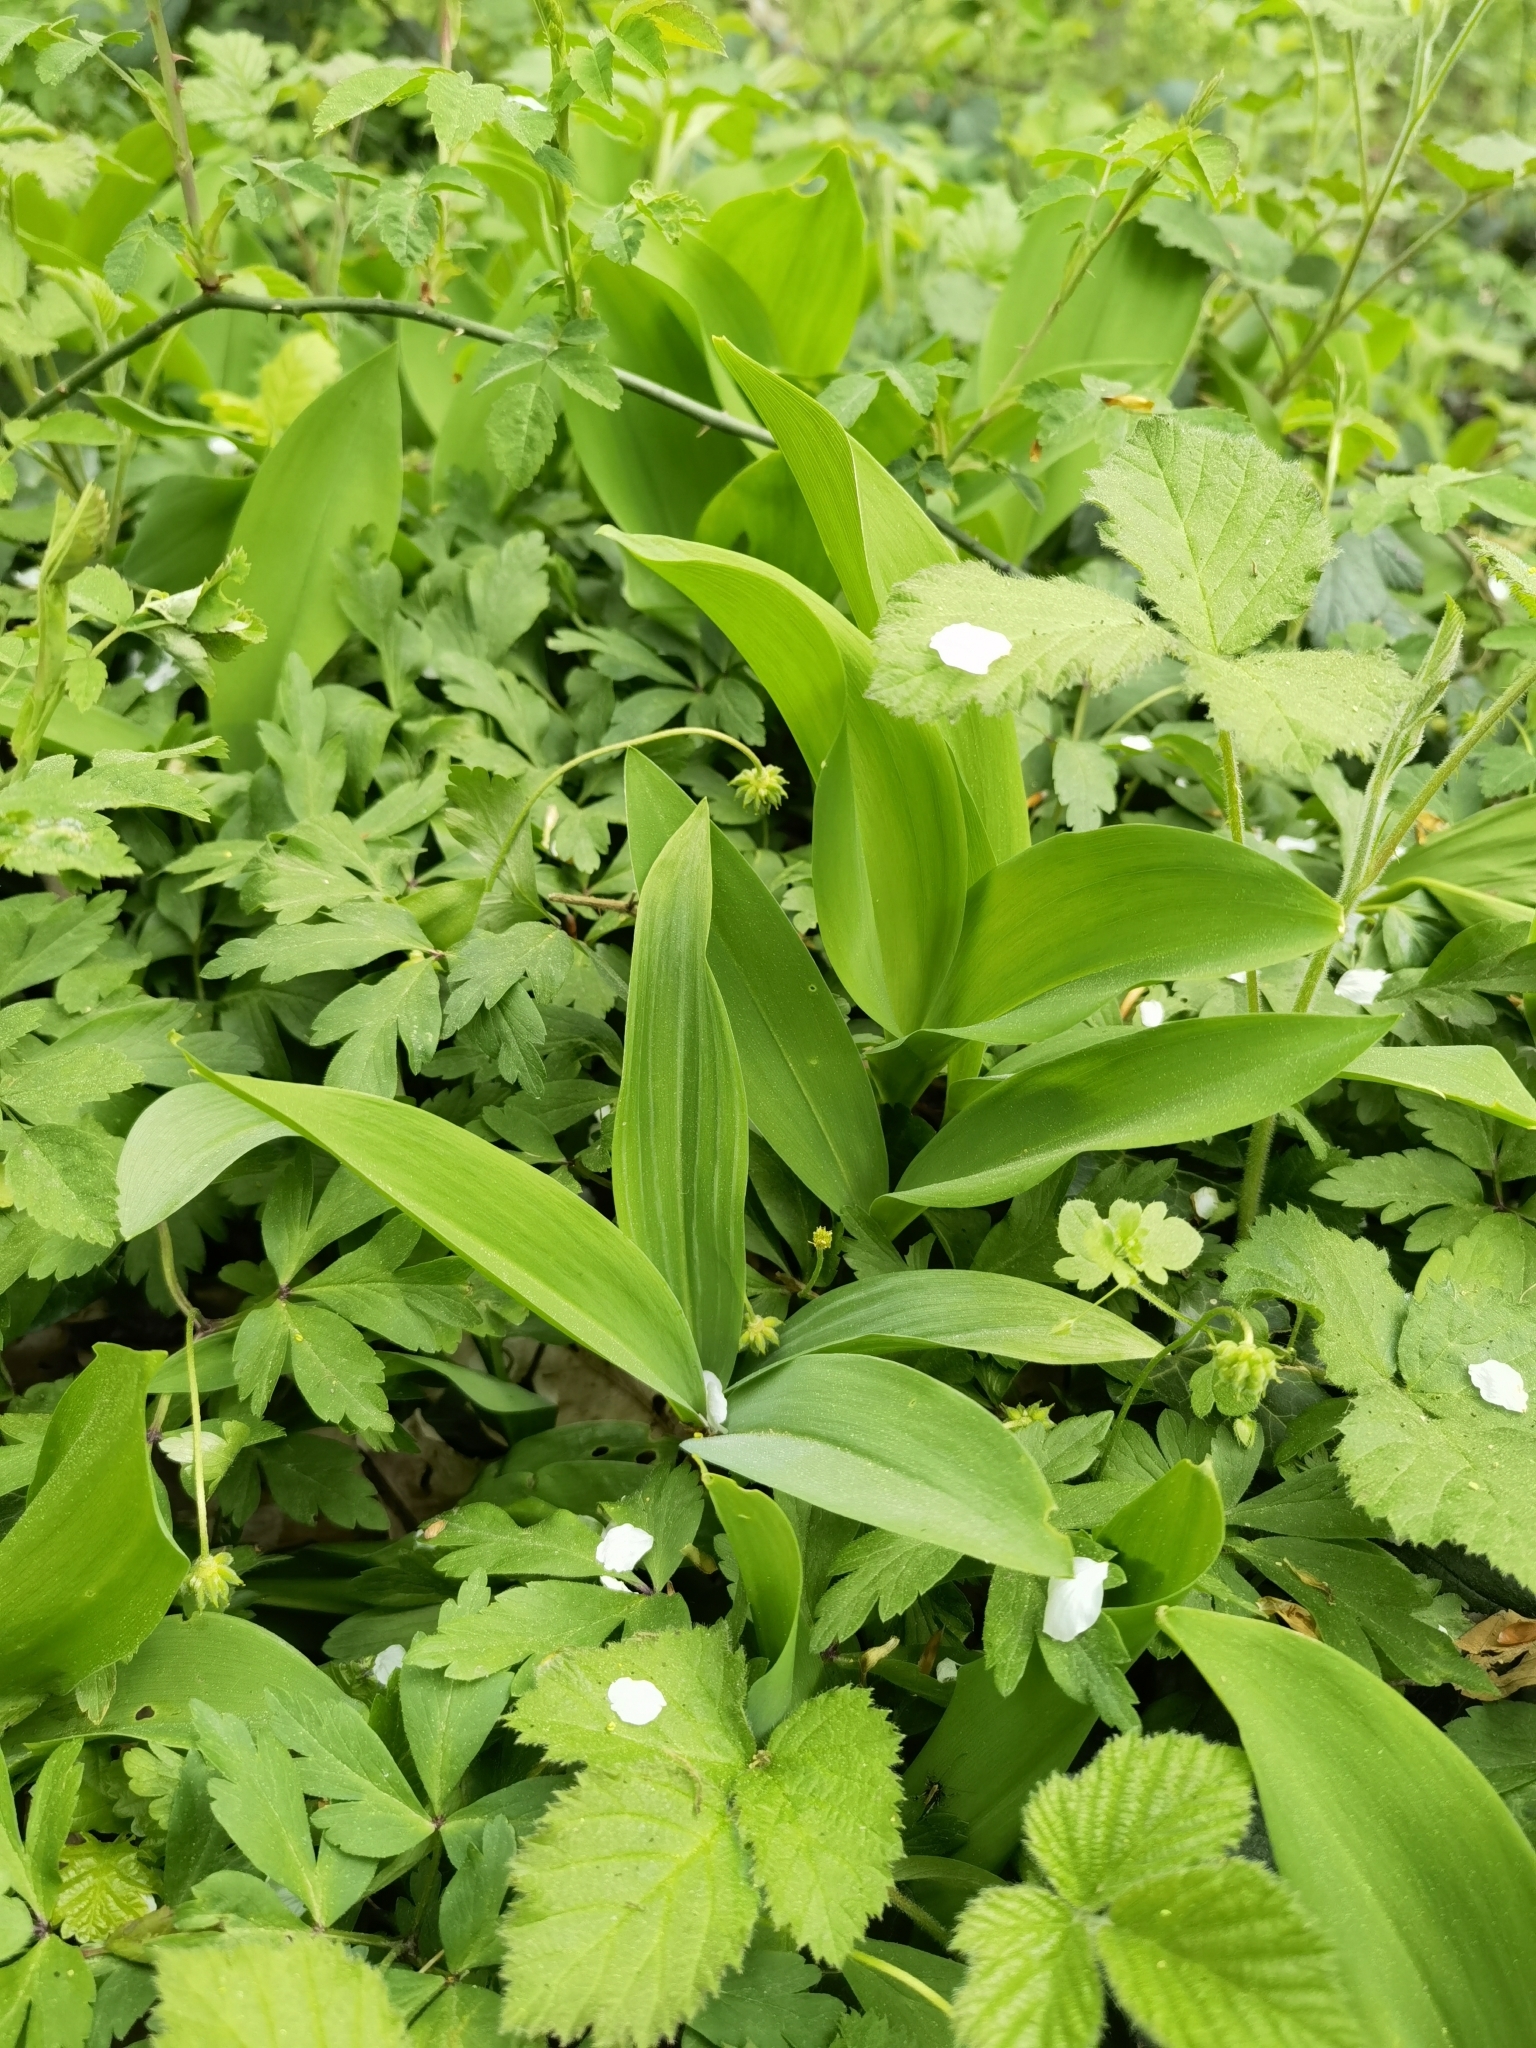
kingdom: Plantae
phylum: Tracheophyta
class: Liliopsida
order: Asparagales
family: Asparagaceae
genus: Convallaria
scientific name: Convallaria majalis
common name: Lily-of-the-valley
